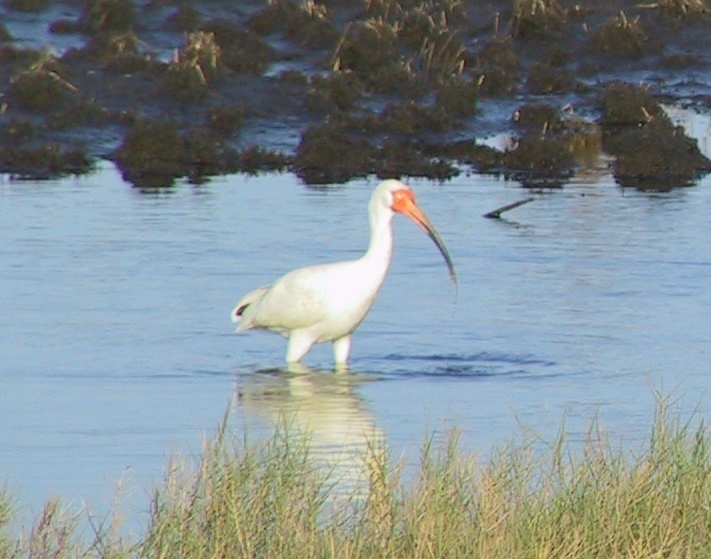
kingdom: Animalia
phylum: Chordata
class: Aves
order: Pelecaniformes
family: Threskiornithidae
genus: Eudocimus
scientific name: Eudocimus albus
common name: White ibis
